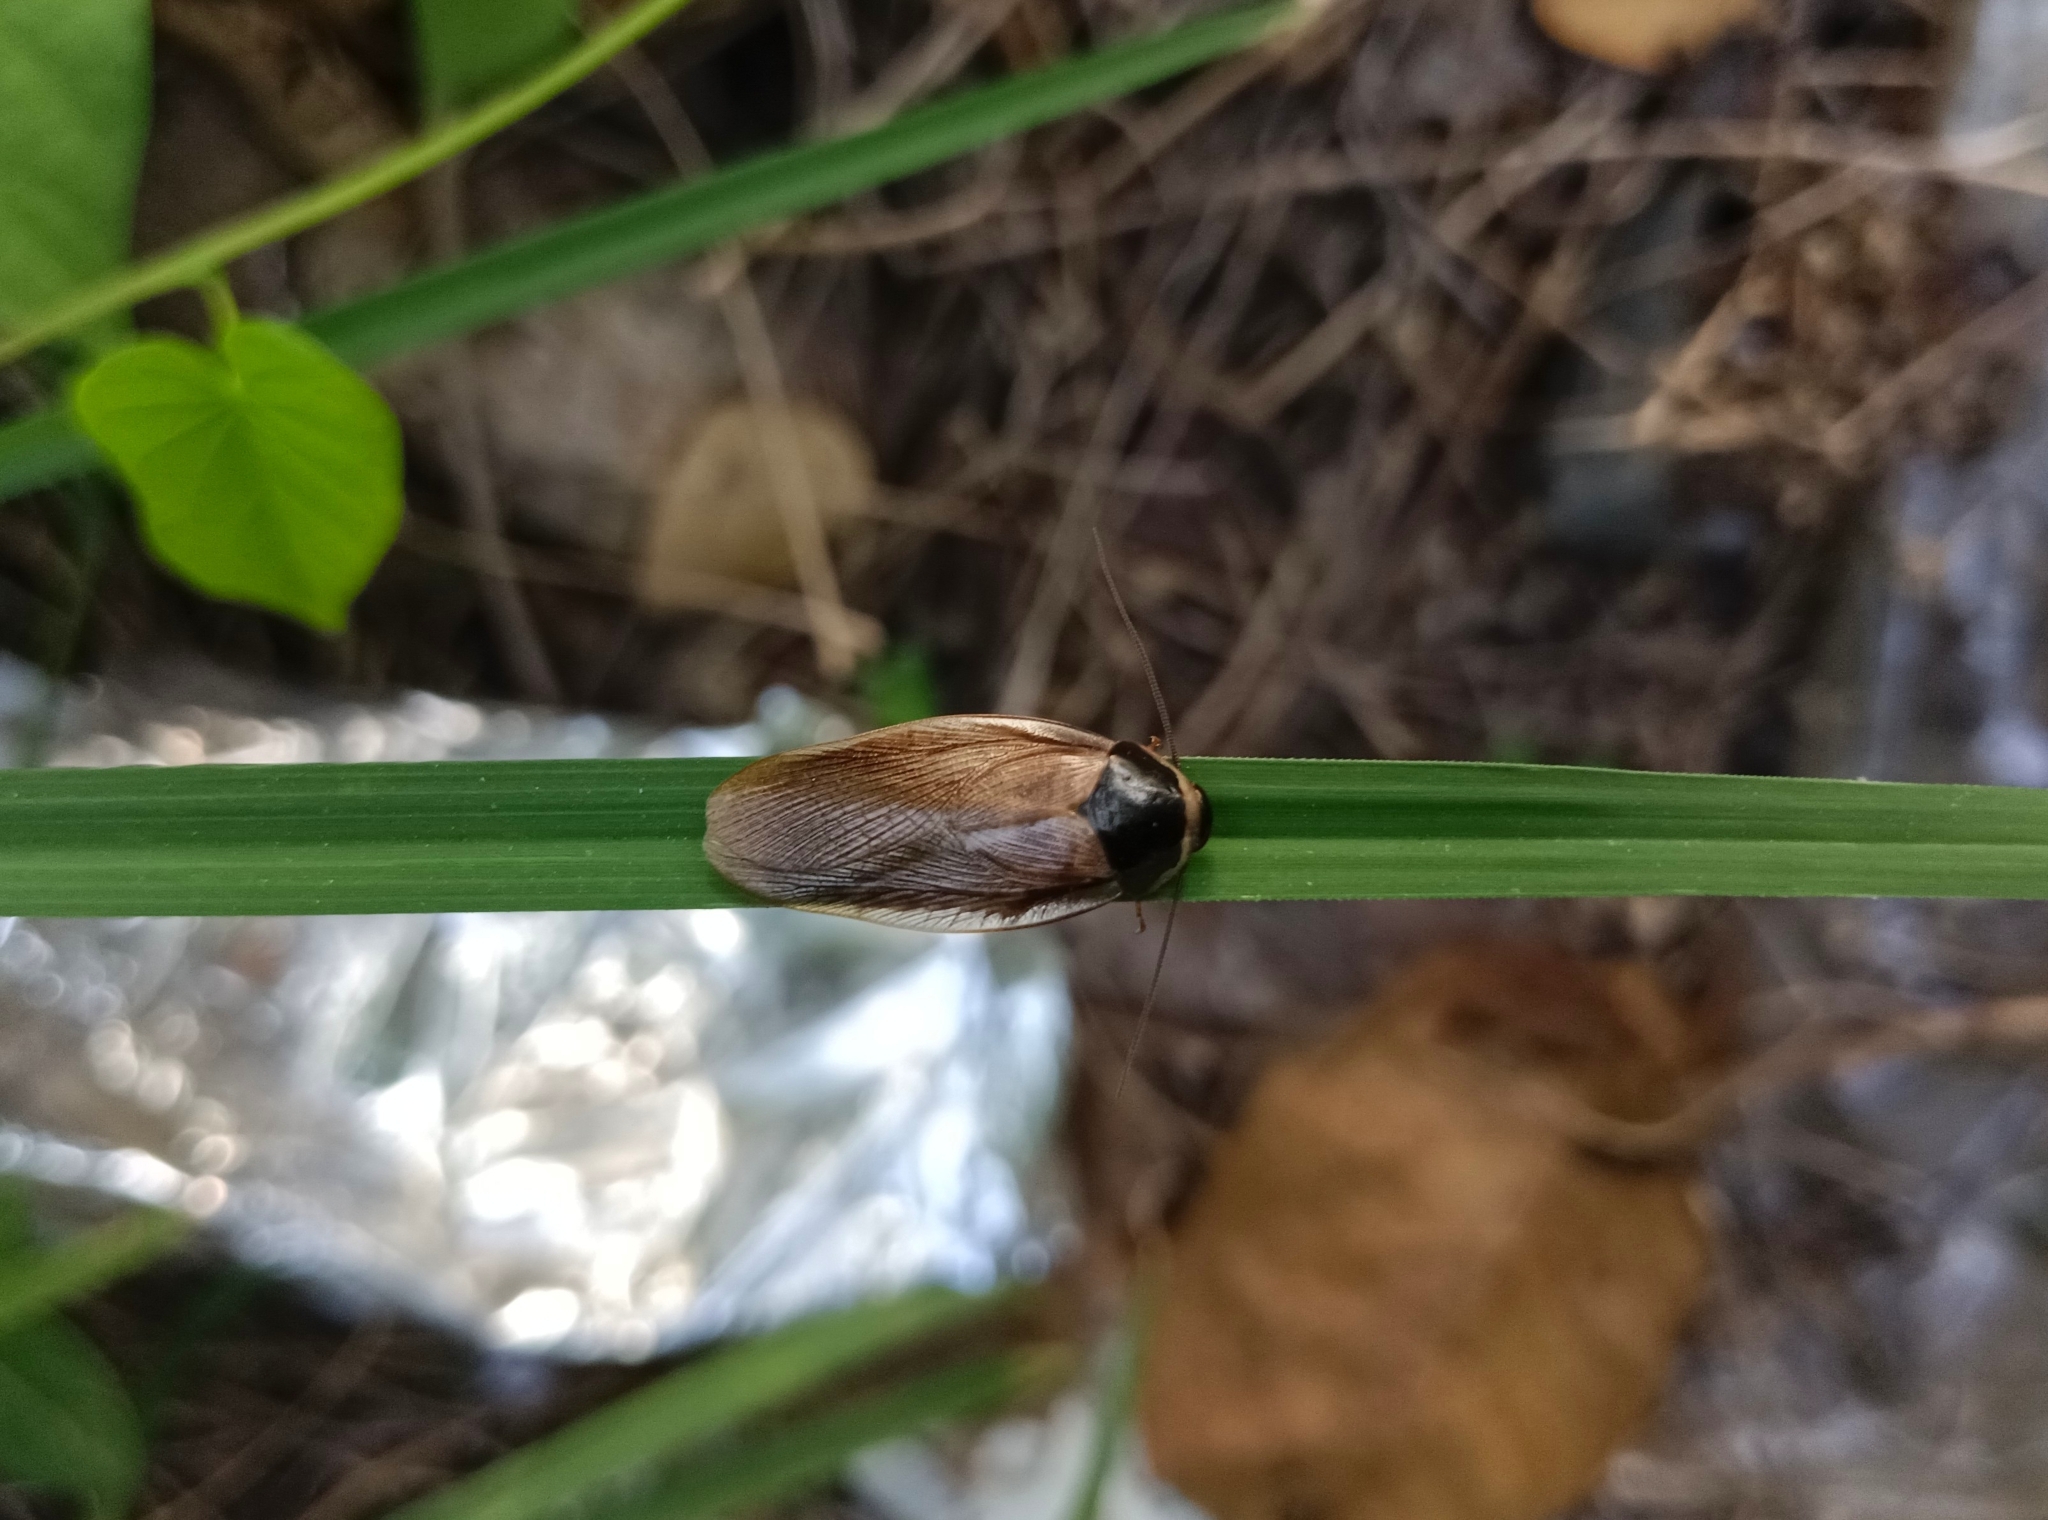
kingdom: Animalia
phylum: Arthropoda
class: Insecta
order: Blattodea
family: Blaberidae
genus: Pycnoscelus
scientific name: Pycnoscelus indicus
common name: Burrowing cockroach
